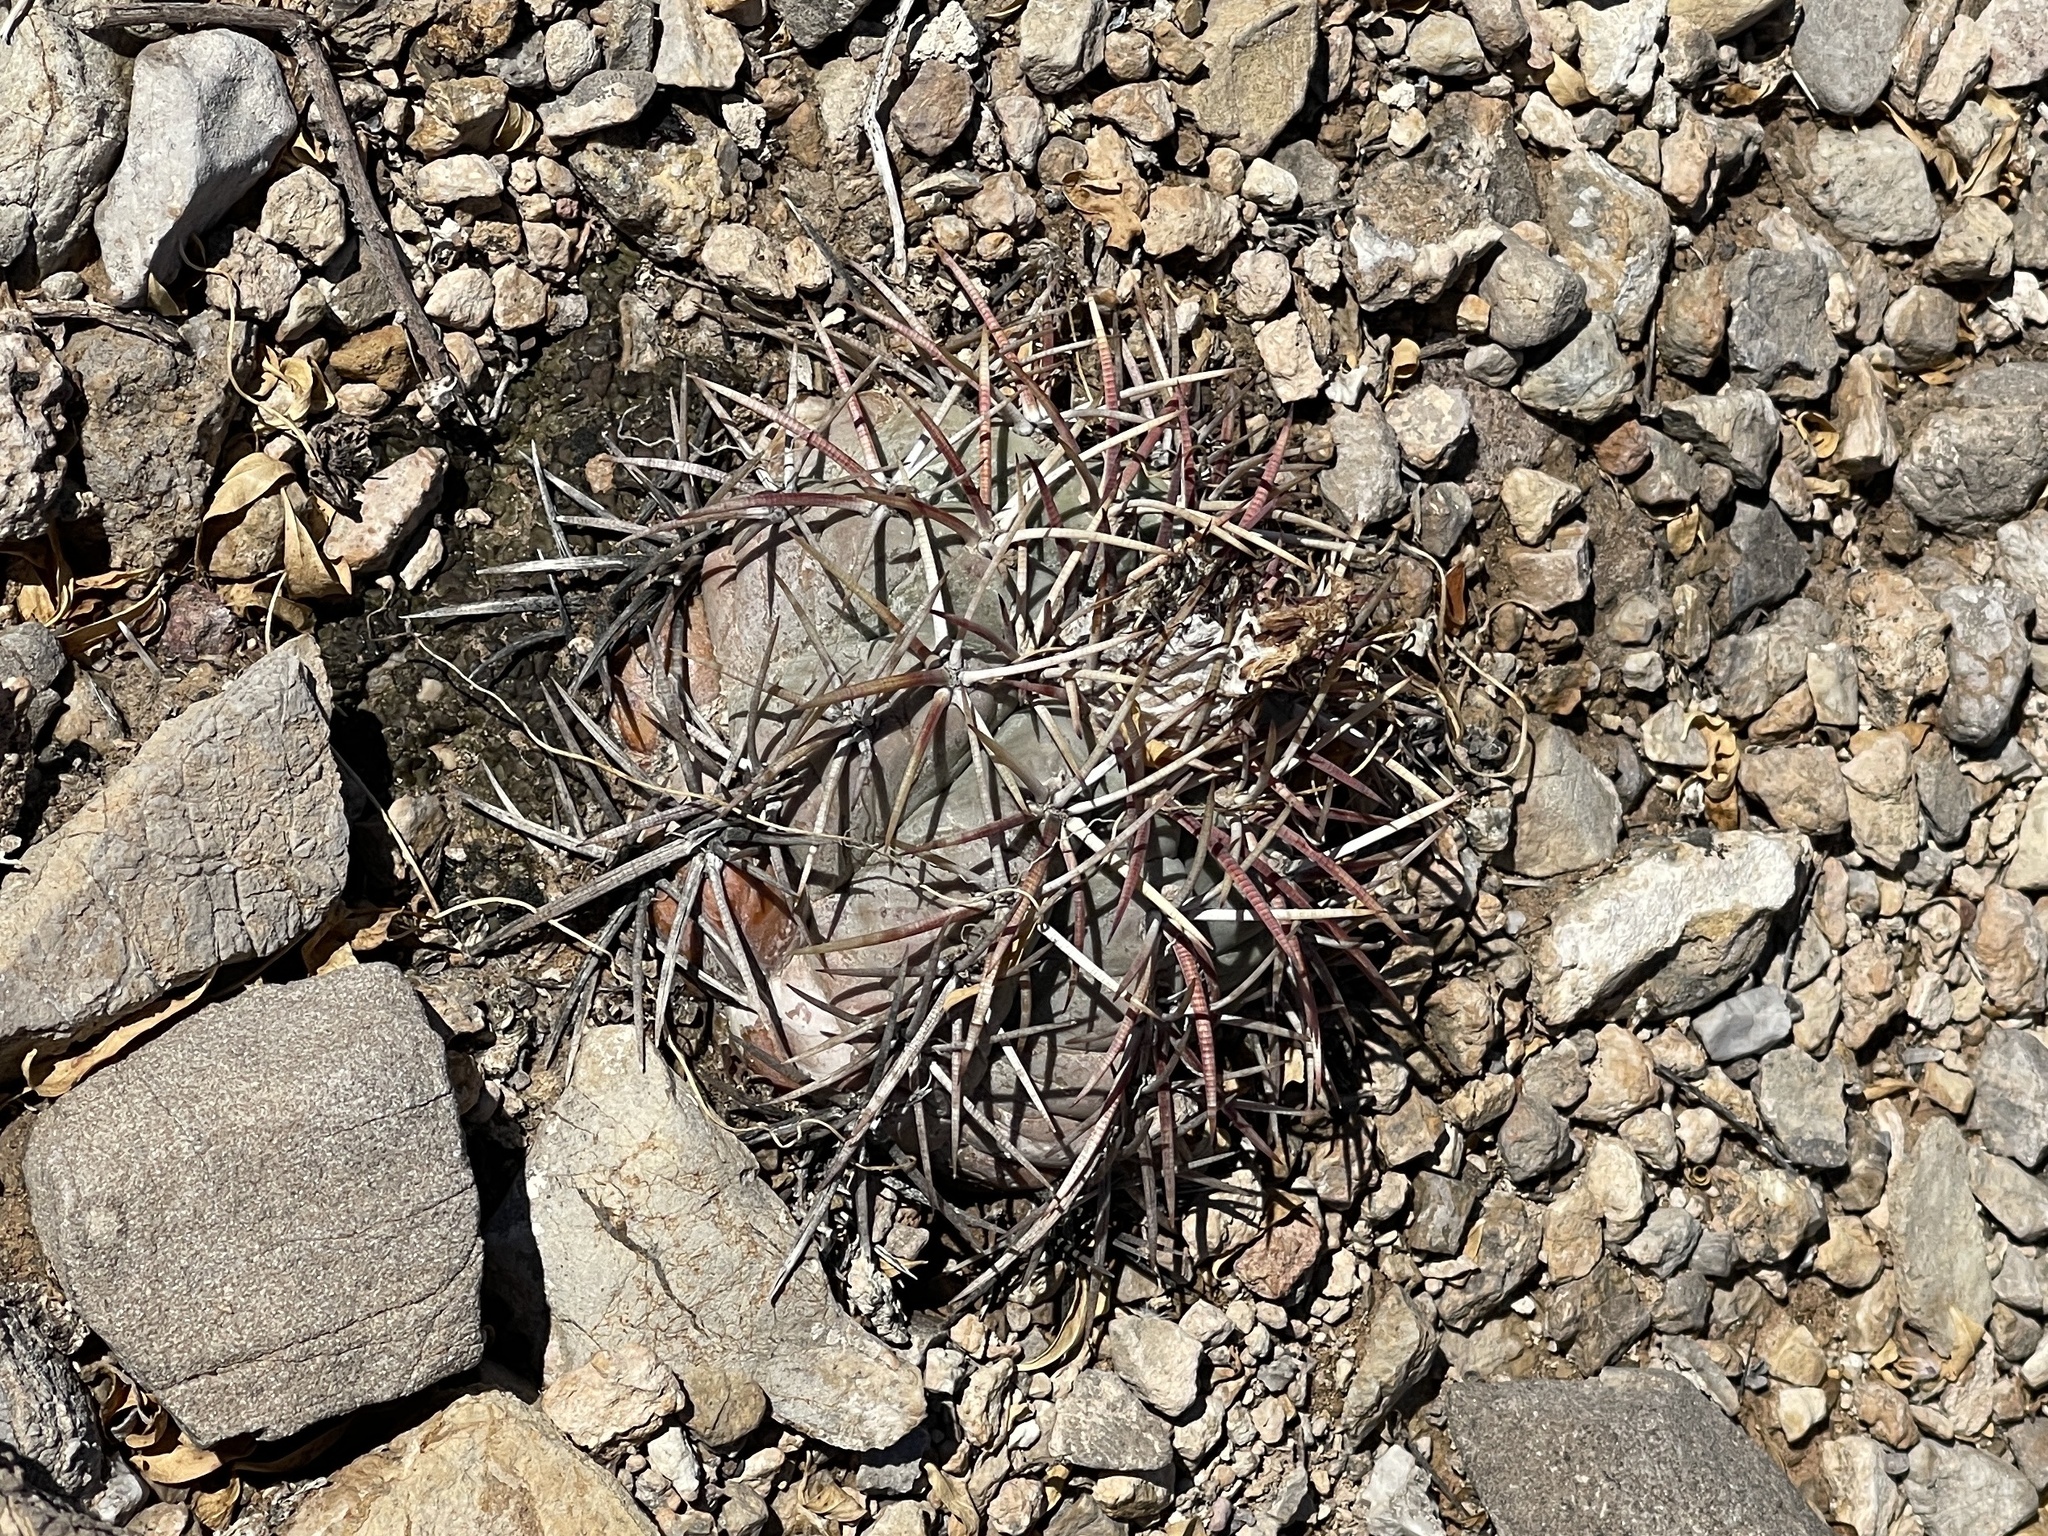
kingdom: Plantae
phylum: Tracheophyta
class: Magnoliopsida
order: Caryophyllales
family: Cactaceae
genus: Echinocactus
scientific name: Echinocactus horizonthalonius
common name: Devilshead
